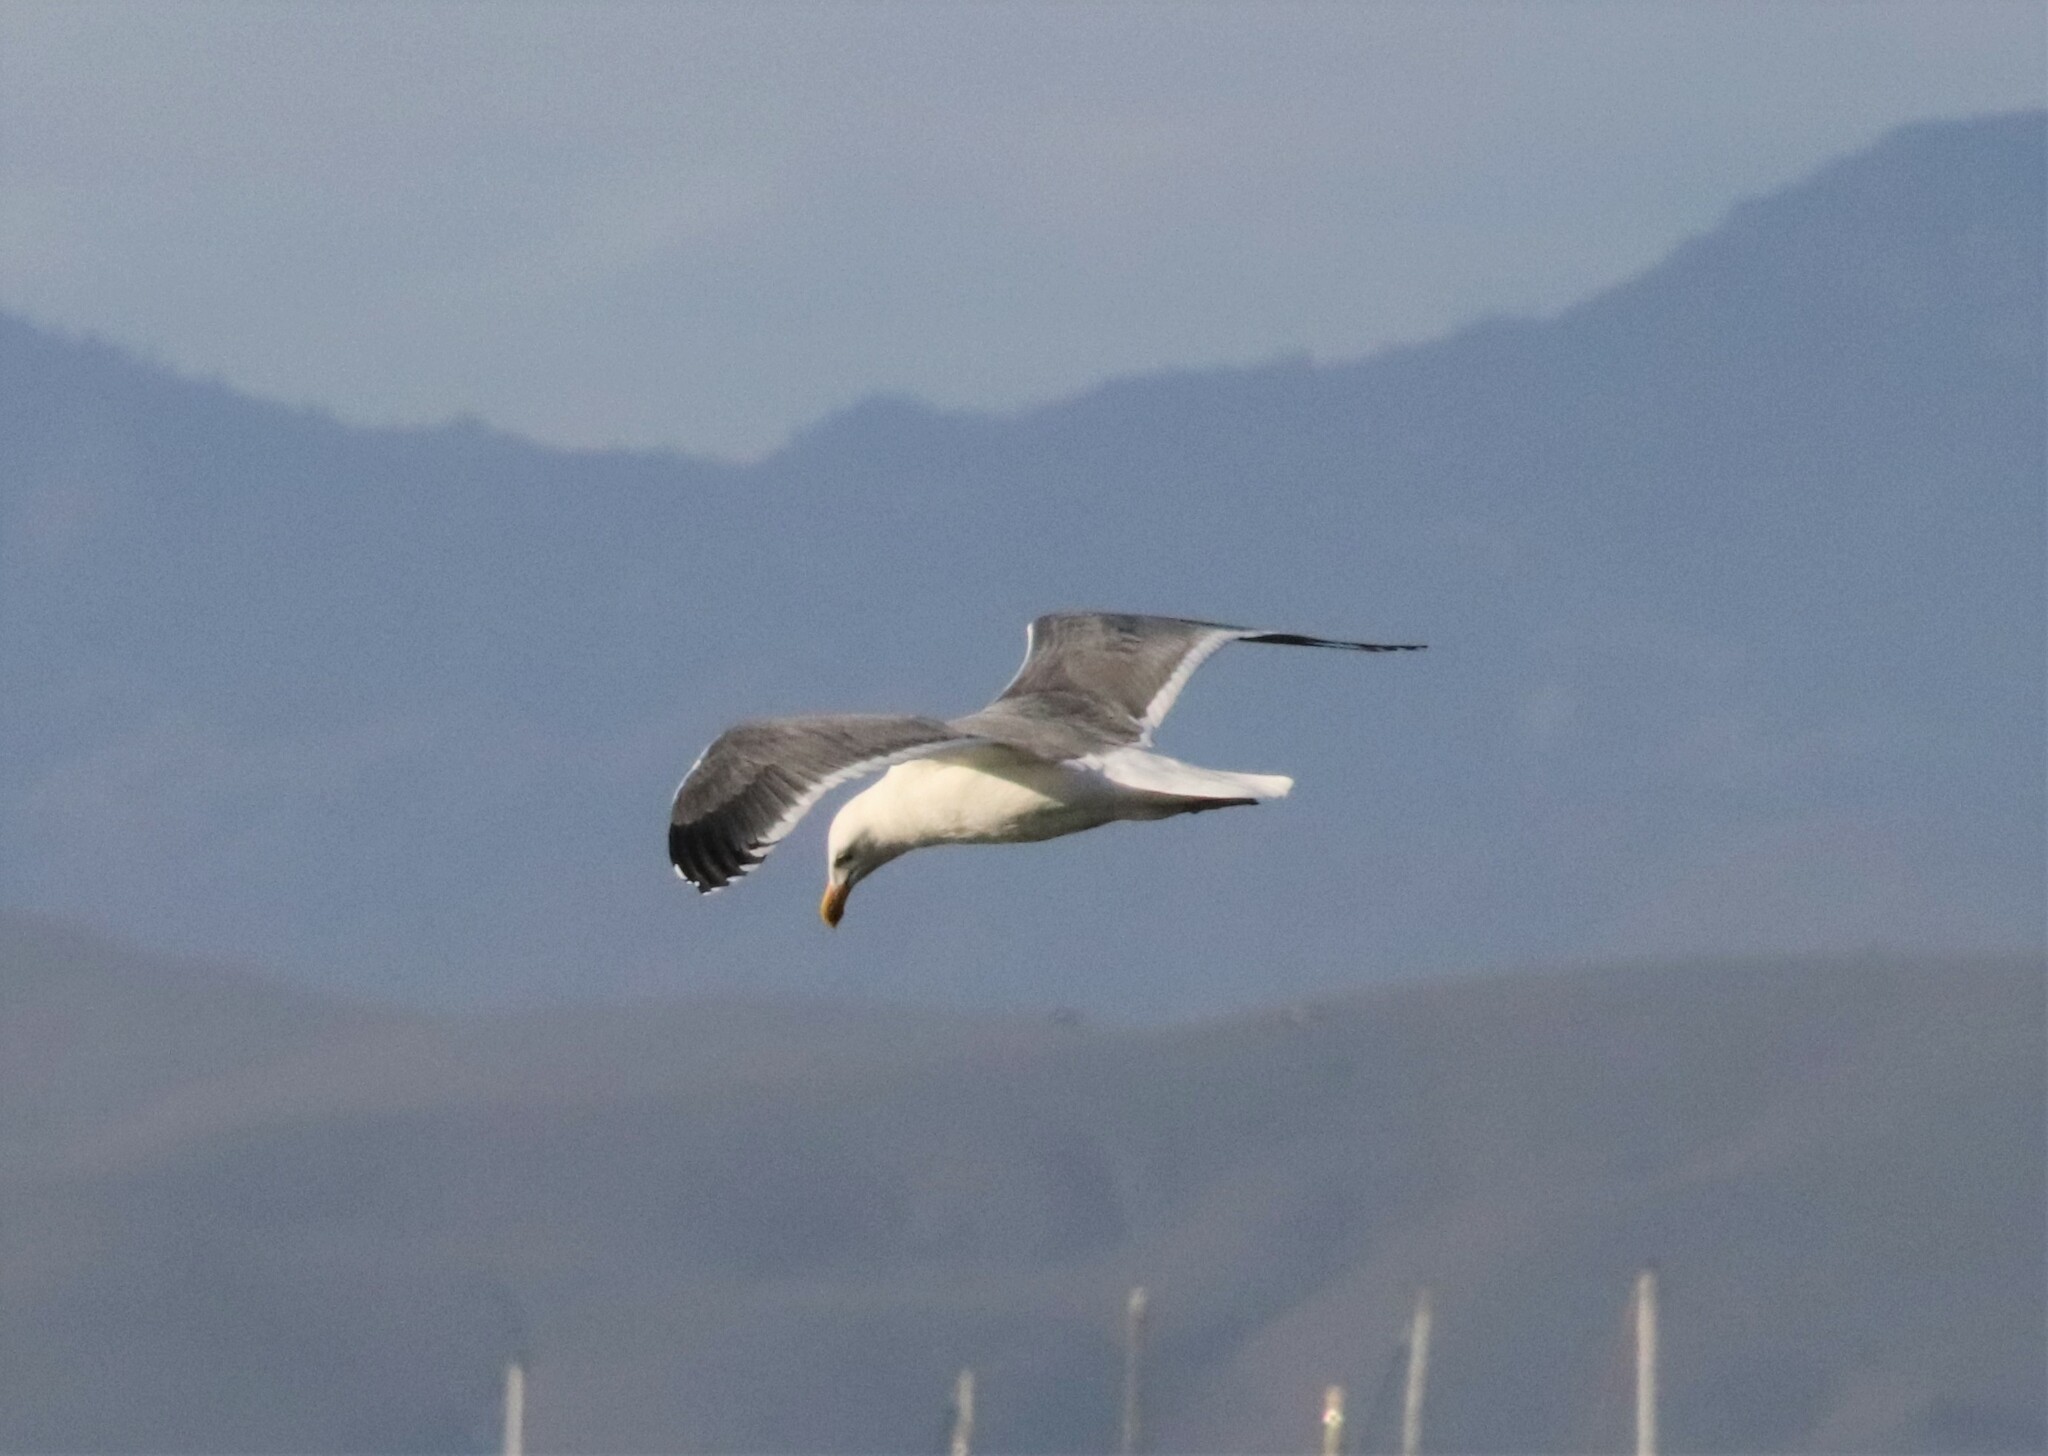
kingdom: Animalia
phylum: Chordata
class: Aves
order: Charadriiformes
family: Laridae
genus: Larus
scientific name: Larus occidentalis
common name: Western gull
